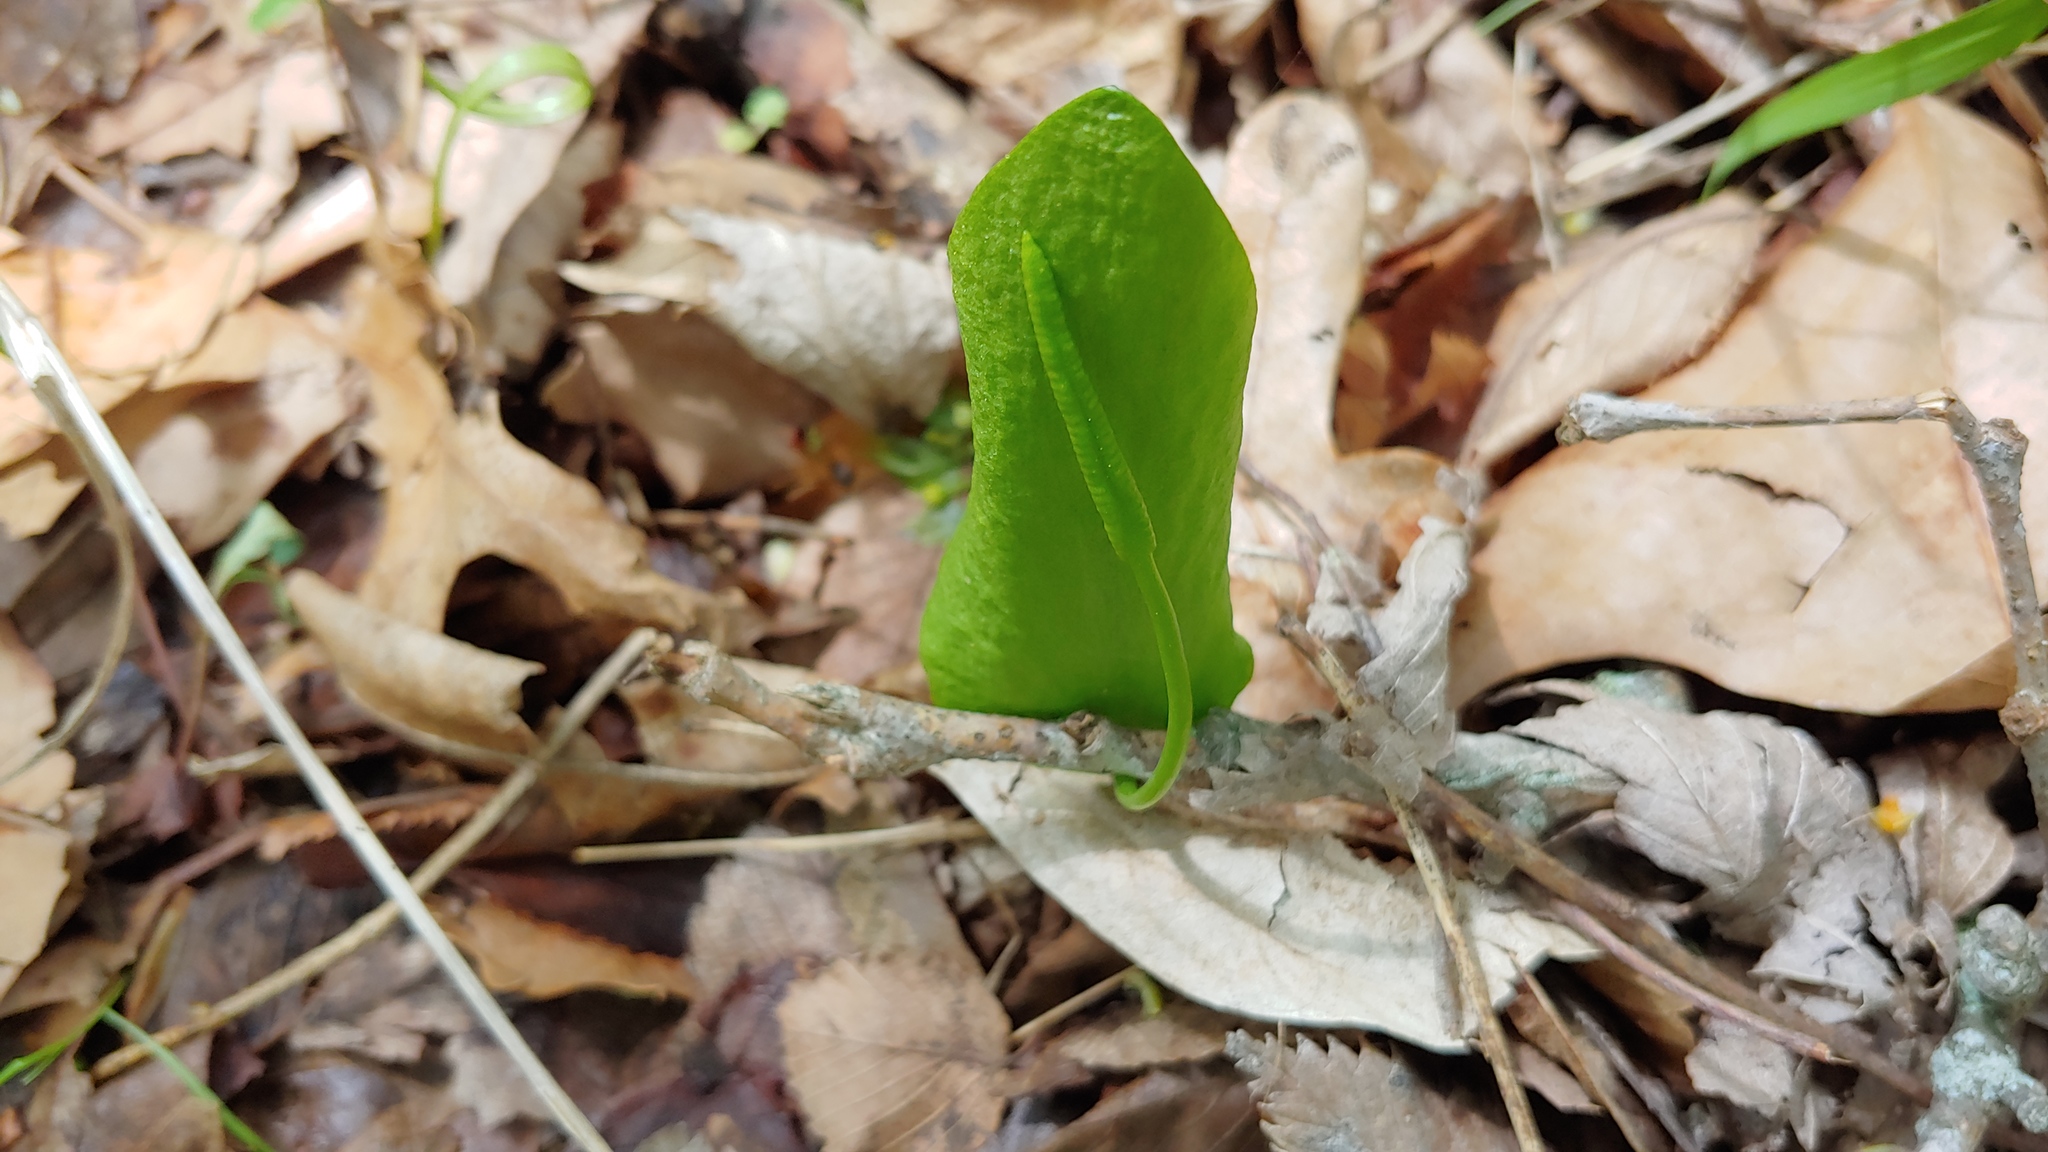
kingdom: Plantae
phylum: Tracheophyta
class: Polypodiopsida
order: Ophioglossales
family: Ophioglossaceae
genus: Ophioglossum
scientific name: Ophioglossum vulgatum
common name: Adder's-tongue
